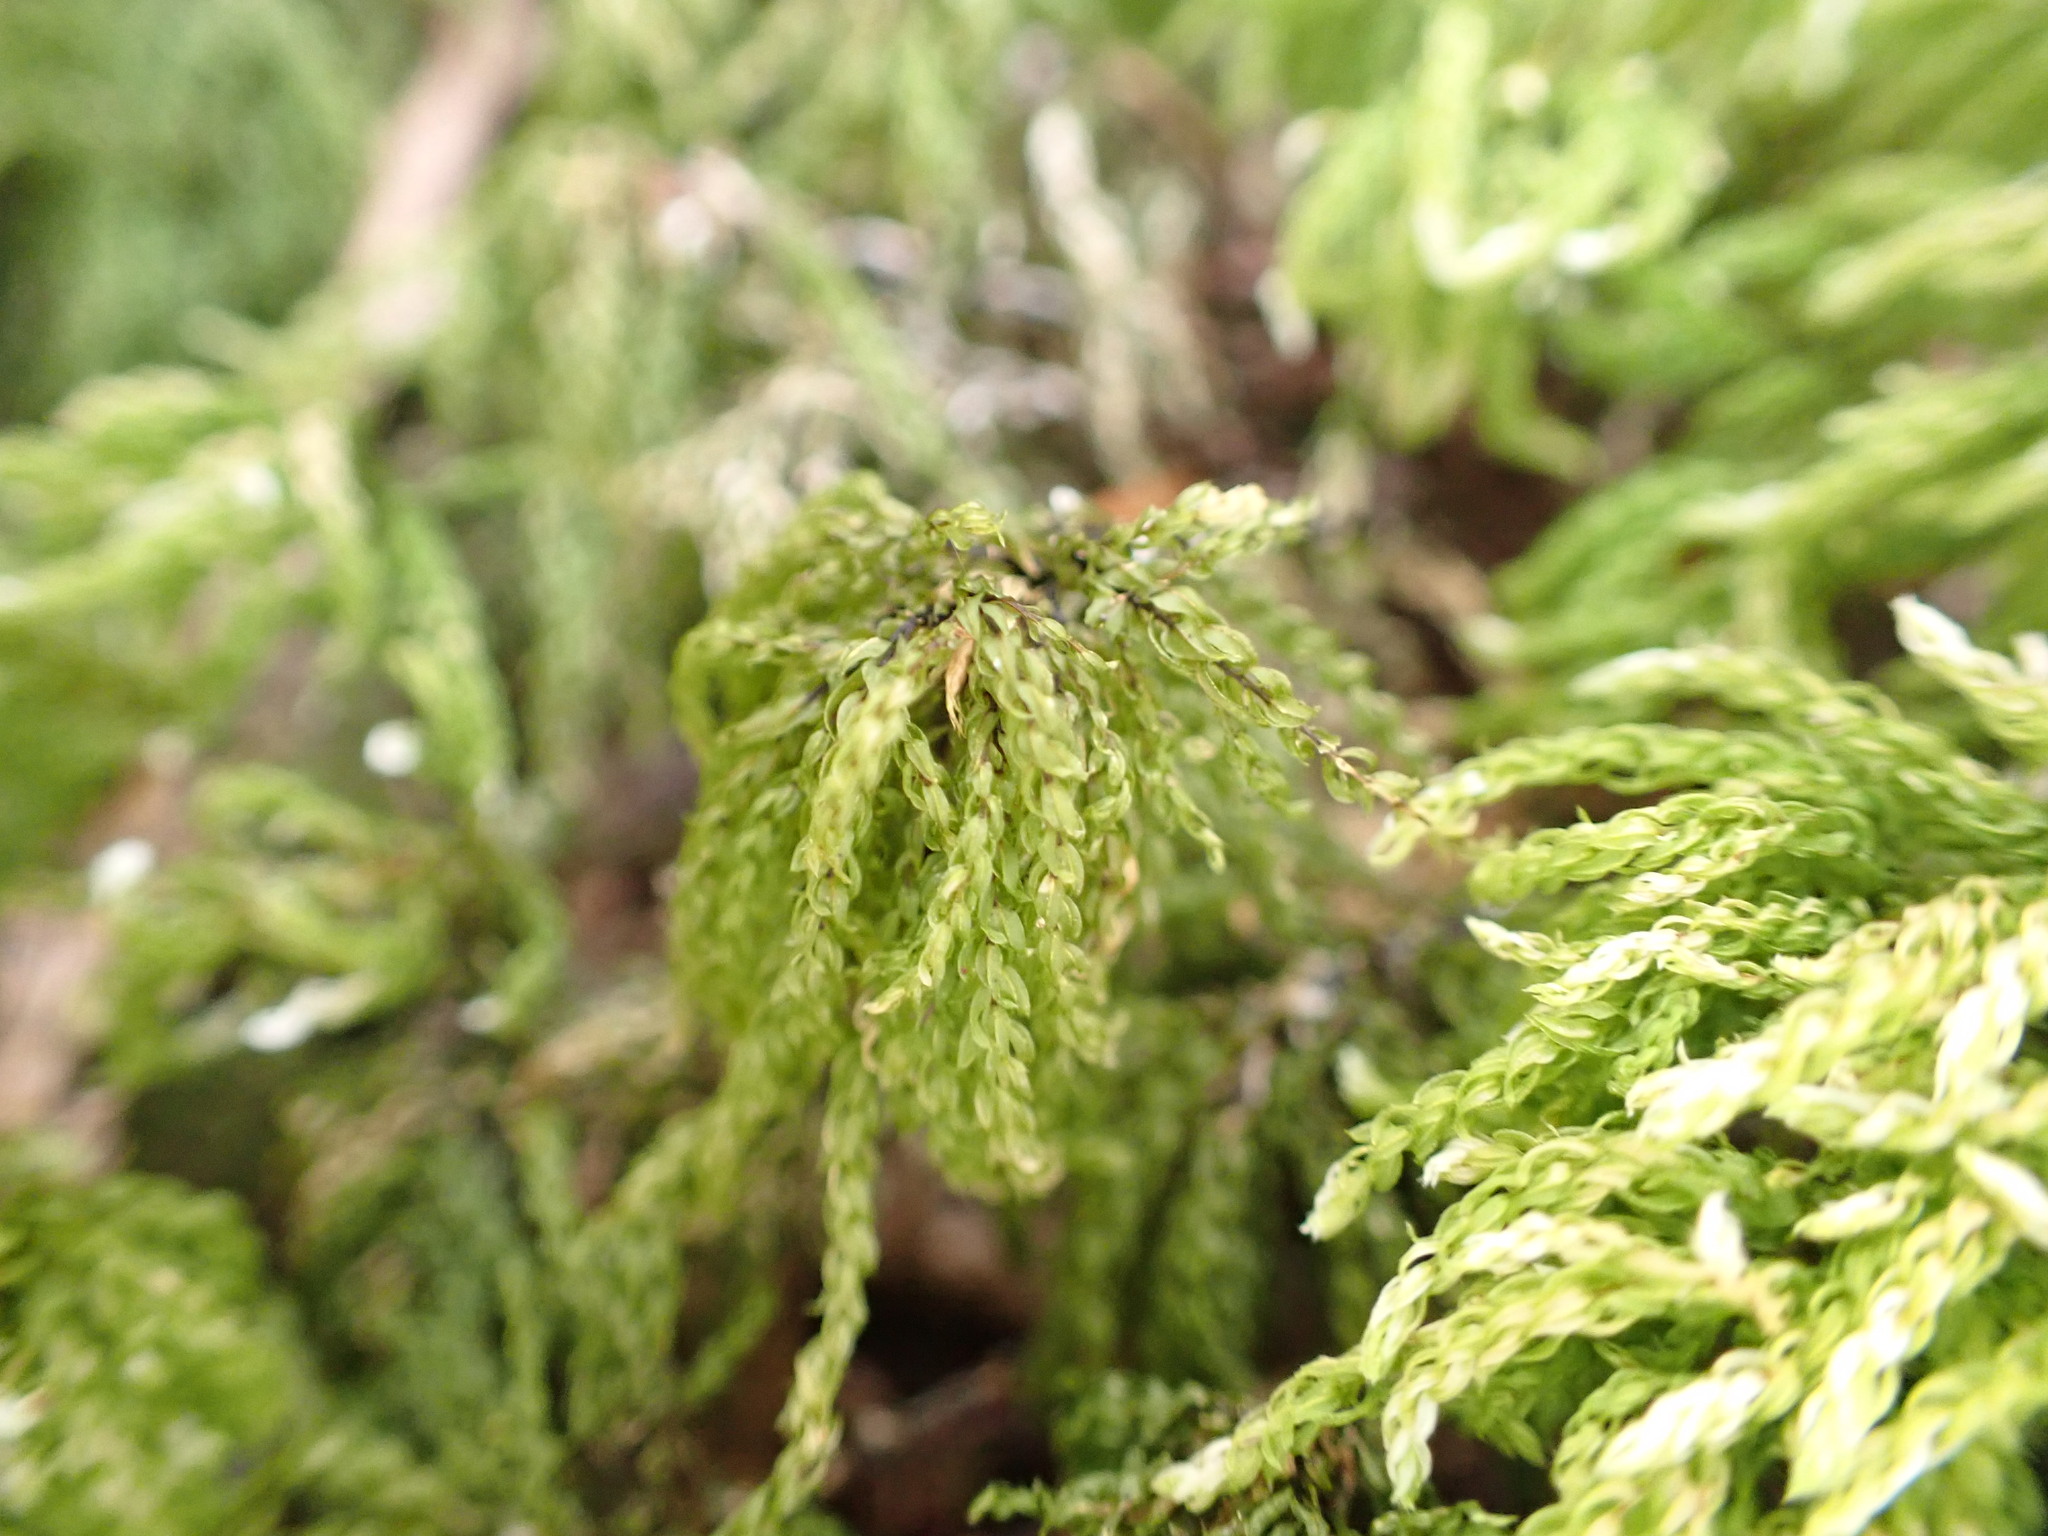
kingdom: Plantae
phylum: Bryophyta
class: Bryopsida
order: Bryales
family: Mniaceae
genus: Leucolepis
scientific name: Leucolepis acanthoneura
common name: Leucolepis umbrella moss
